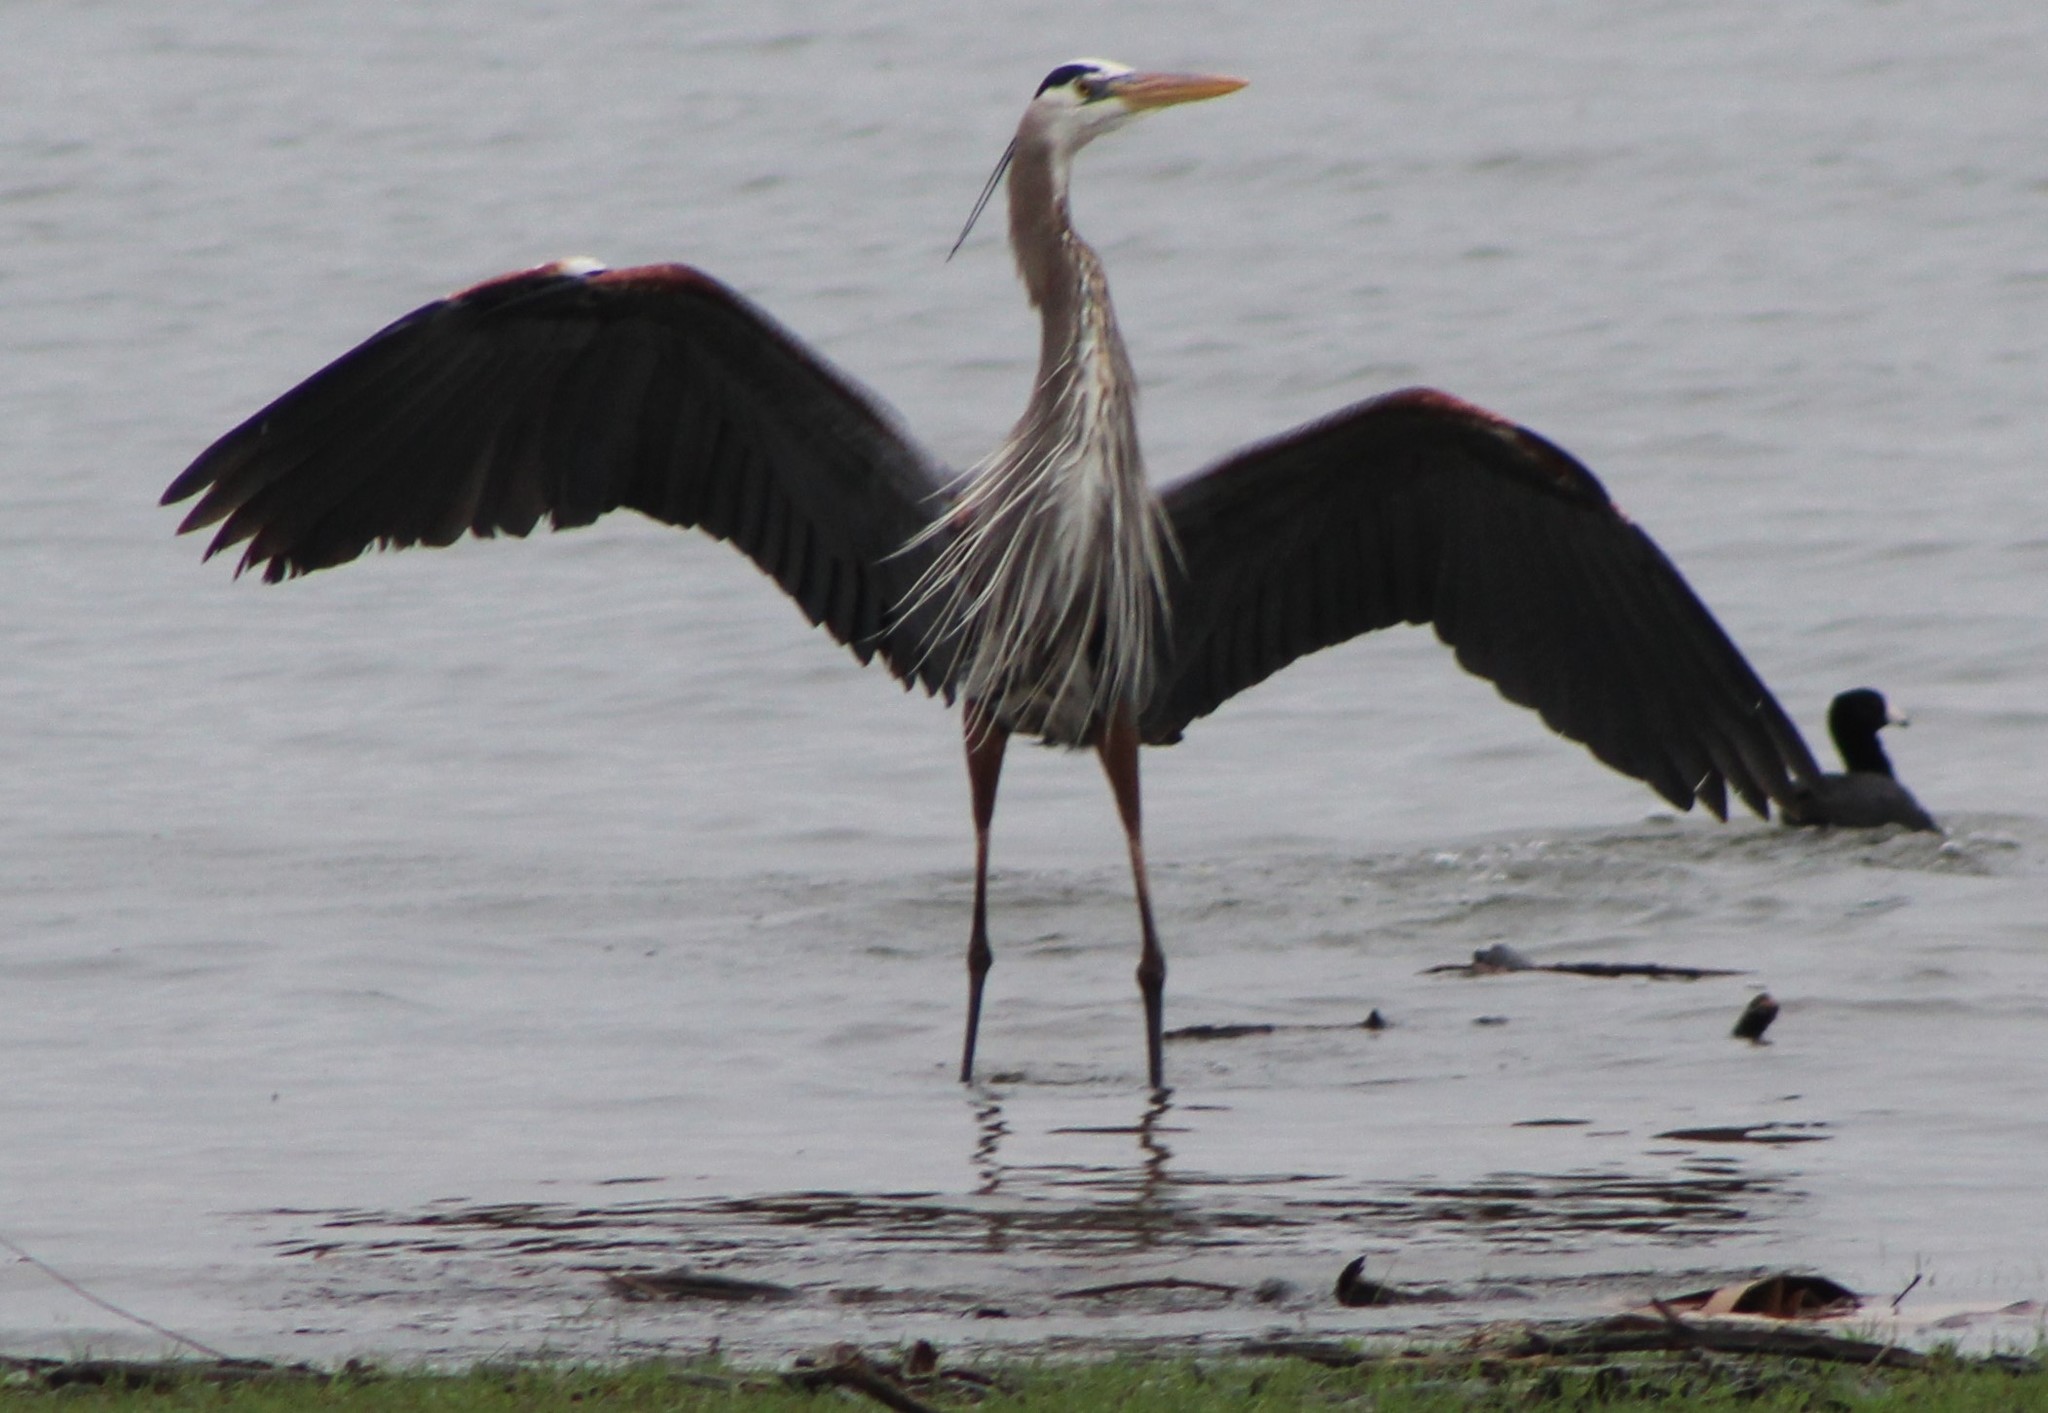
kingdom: Animalia
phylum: Chordata
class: Aves
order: Pelecaniformes
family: Ardeidae
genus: Ardea
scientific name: Ardea herodias
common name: Great blue heron
